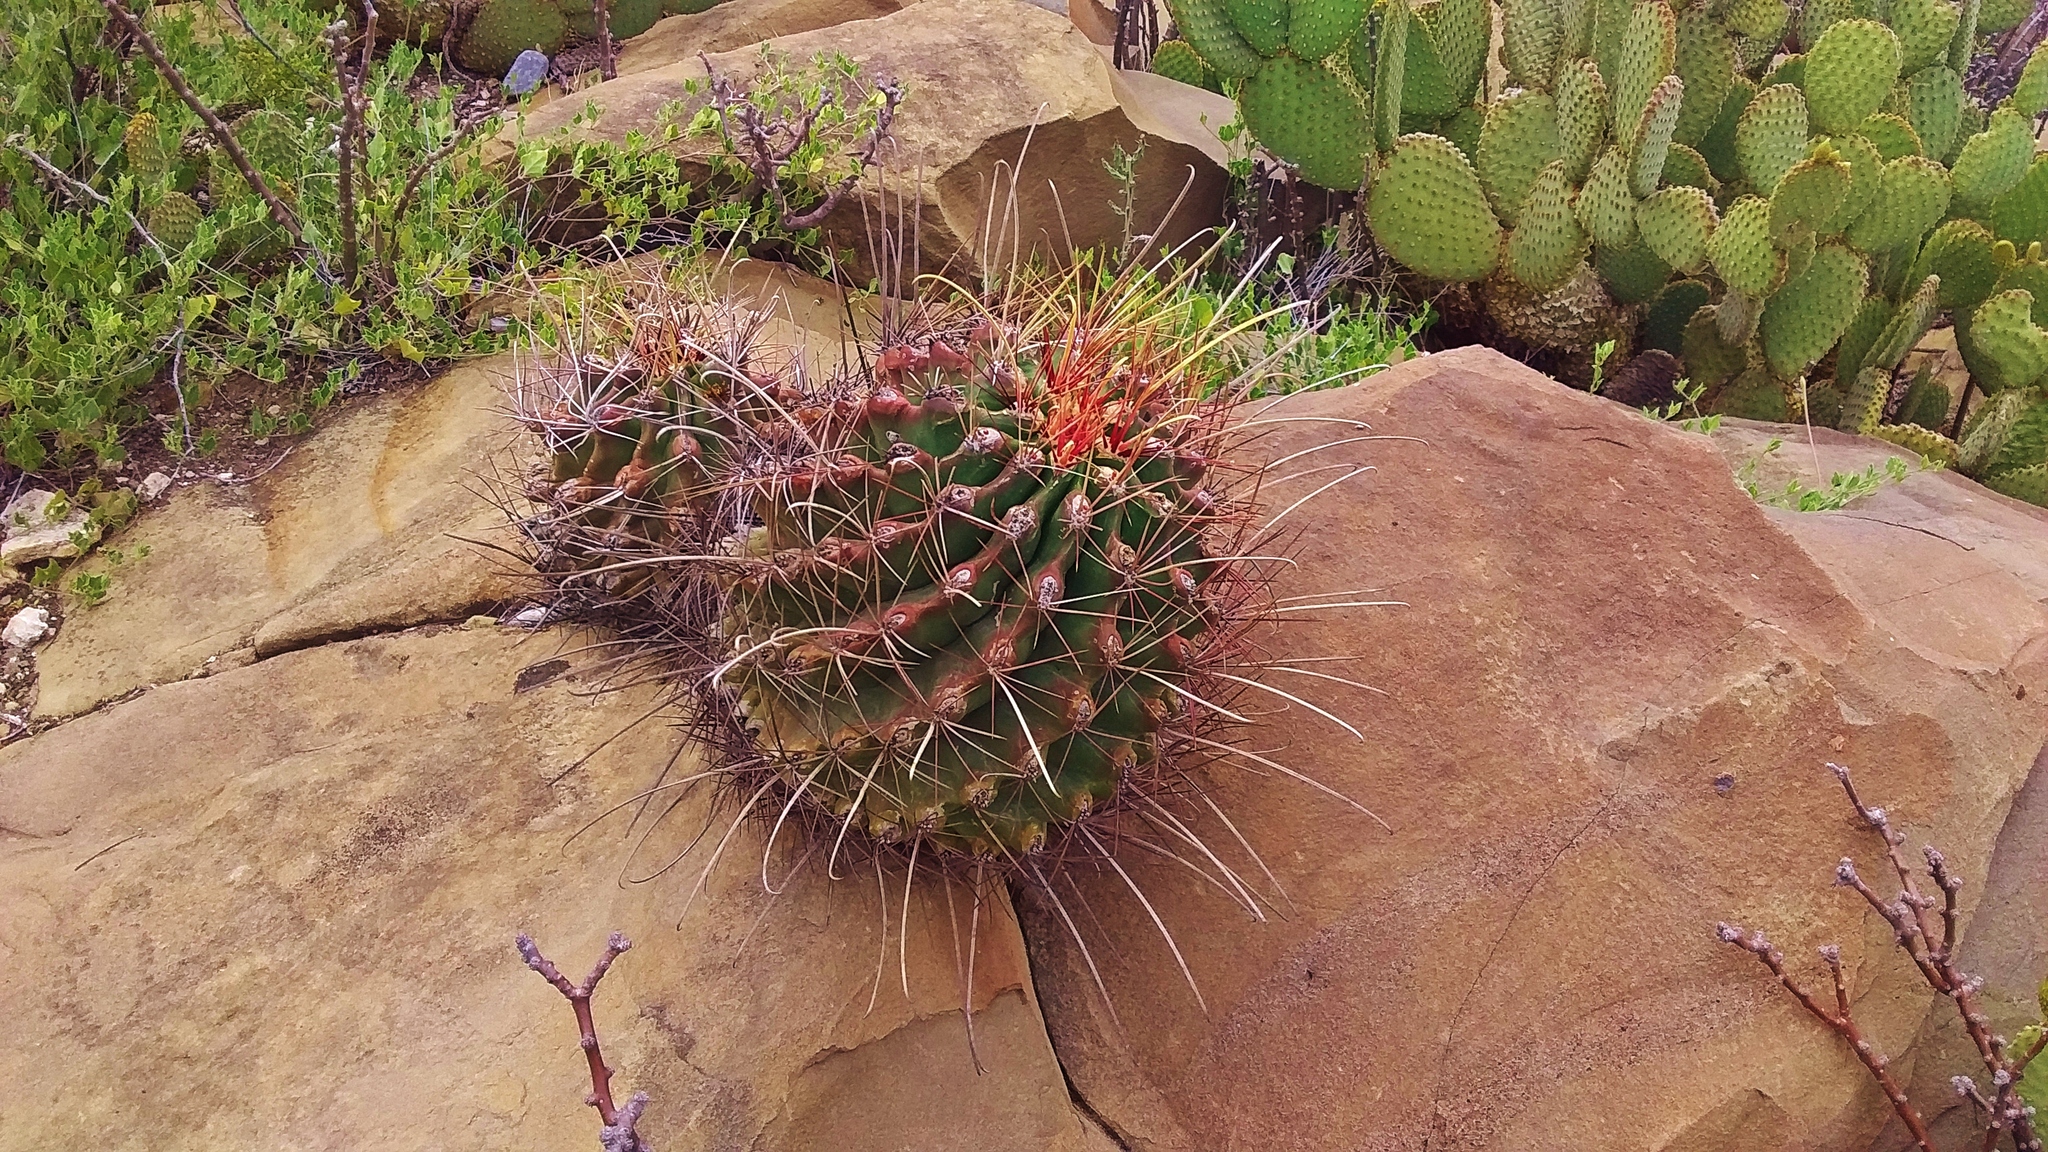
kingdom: Plantae
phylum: Tracheophyta
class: Magnoliopsida
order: Caryophyllales
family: Cactaceae
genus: Bisnaga
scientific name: Bisnaga hamatacantha
